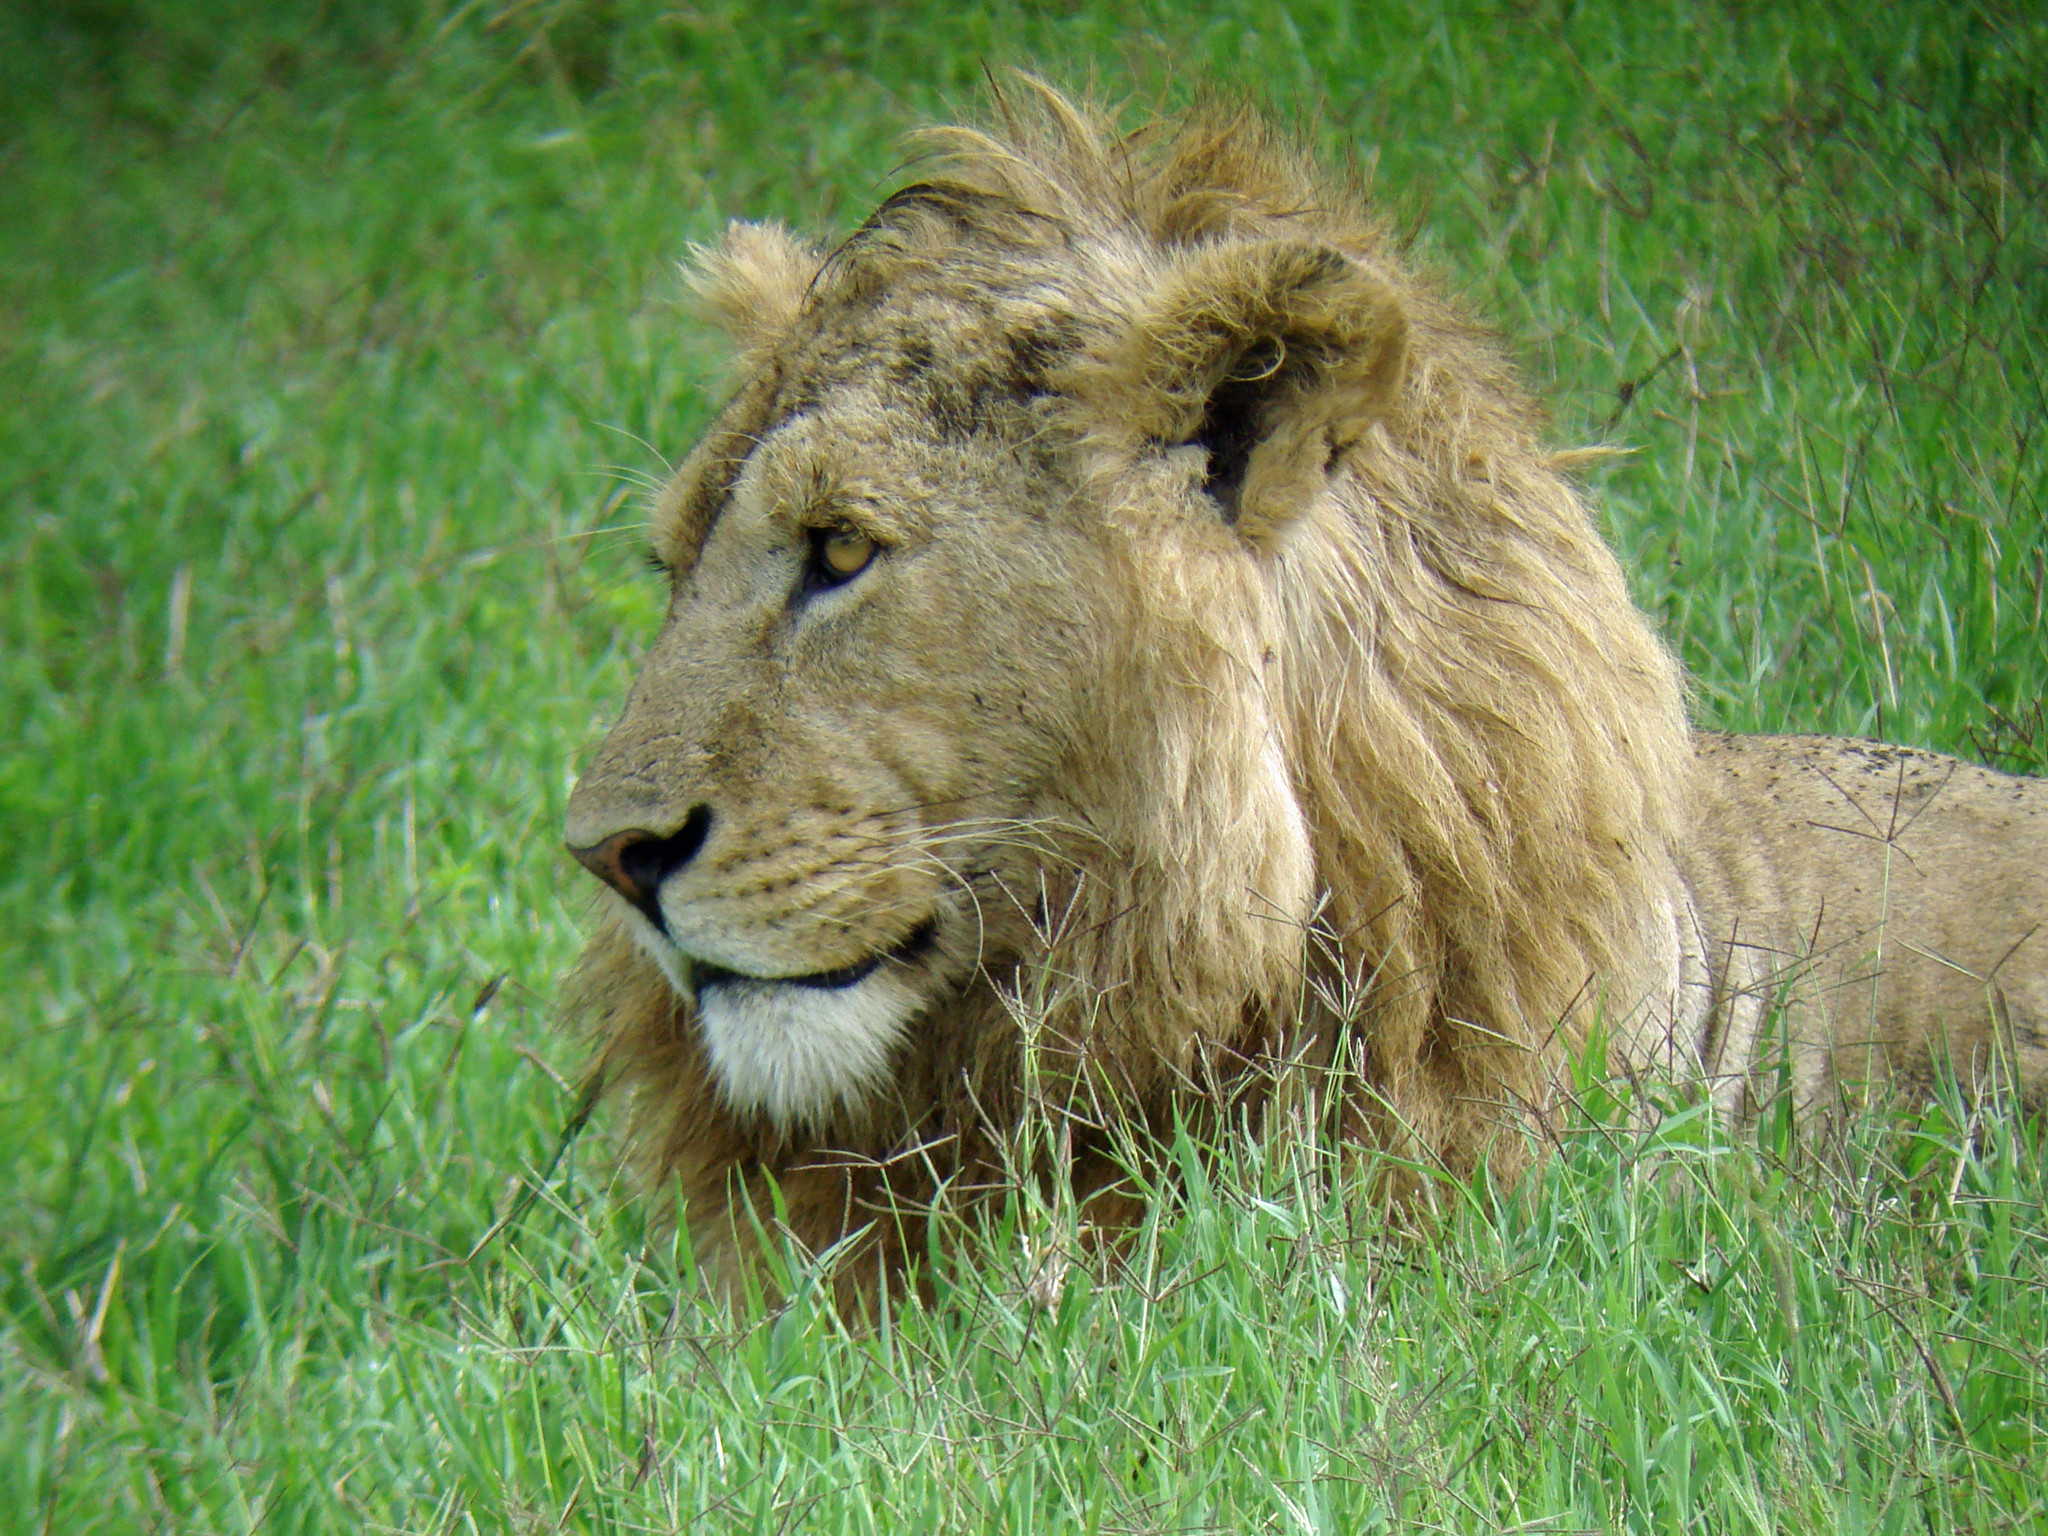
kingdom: Animalia
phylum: Chordata
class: Mammalia
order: Carnivora
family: Felidae
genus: Panthera
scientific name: Panthera leo
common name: Lion
